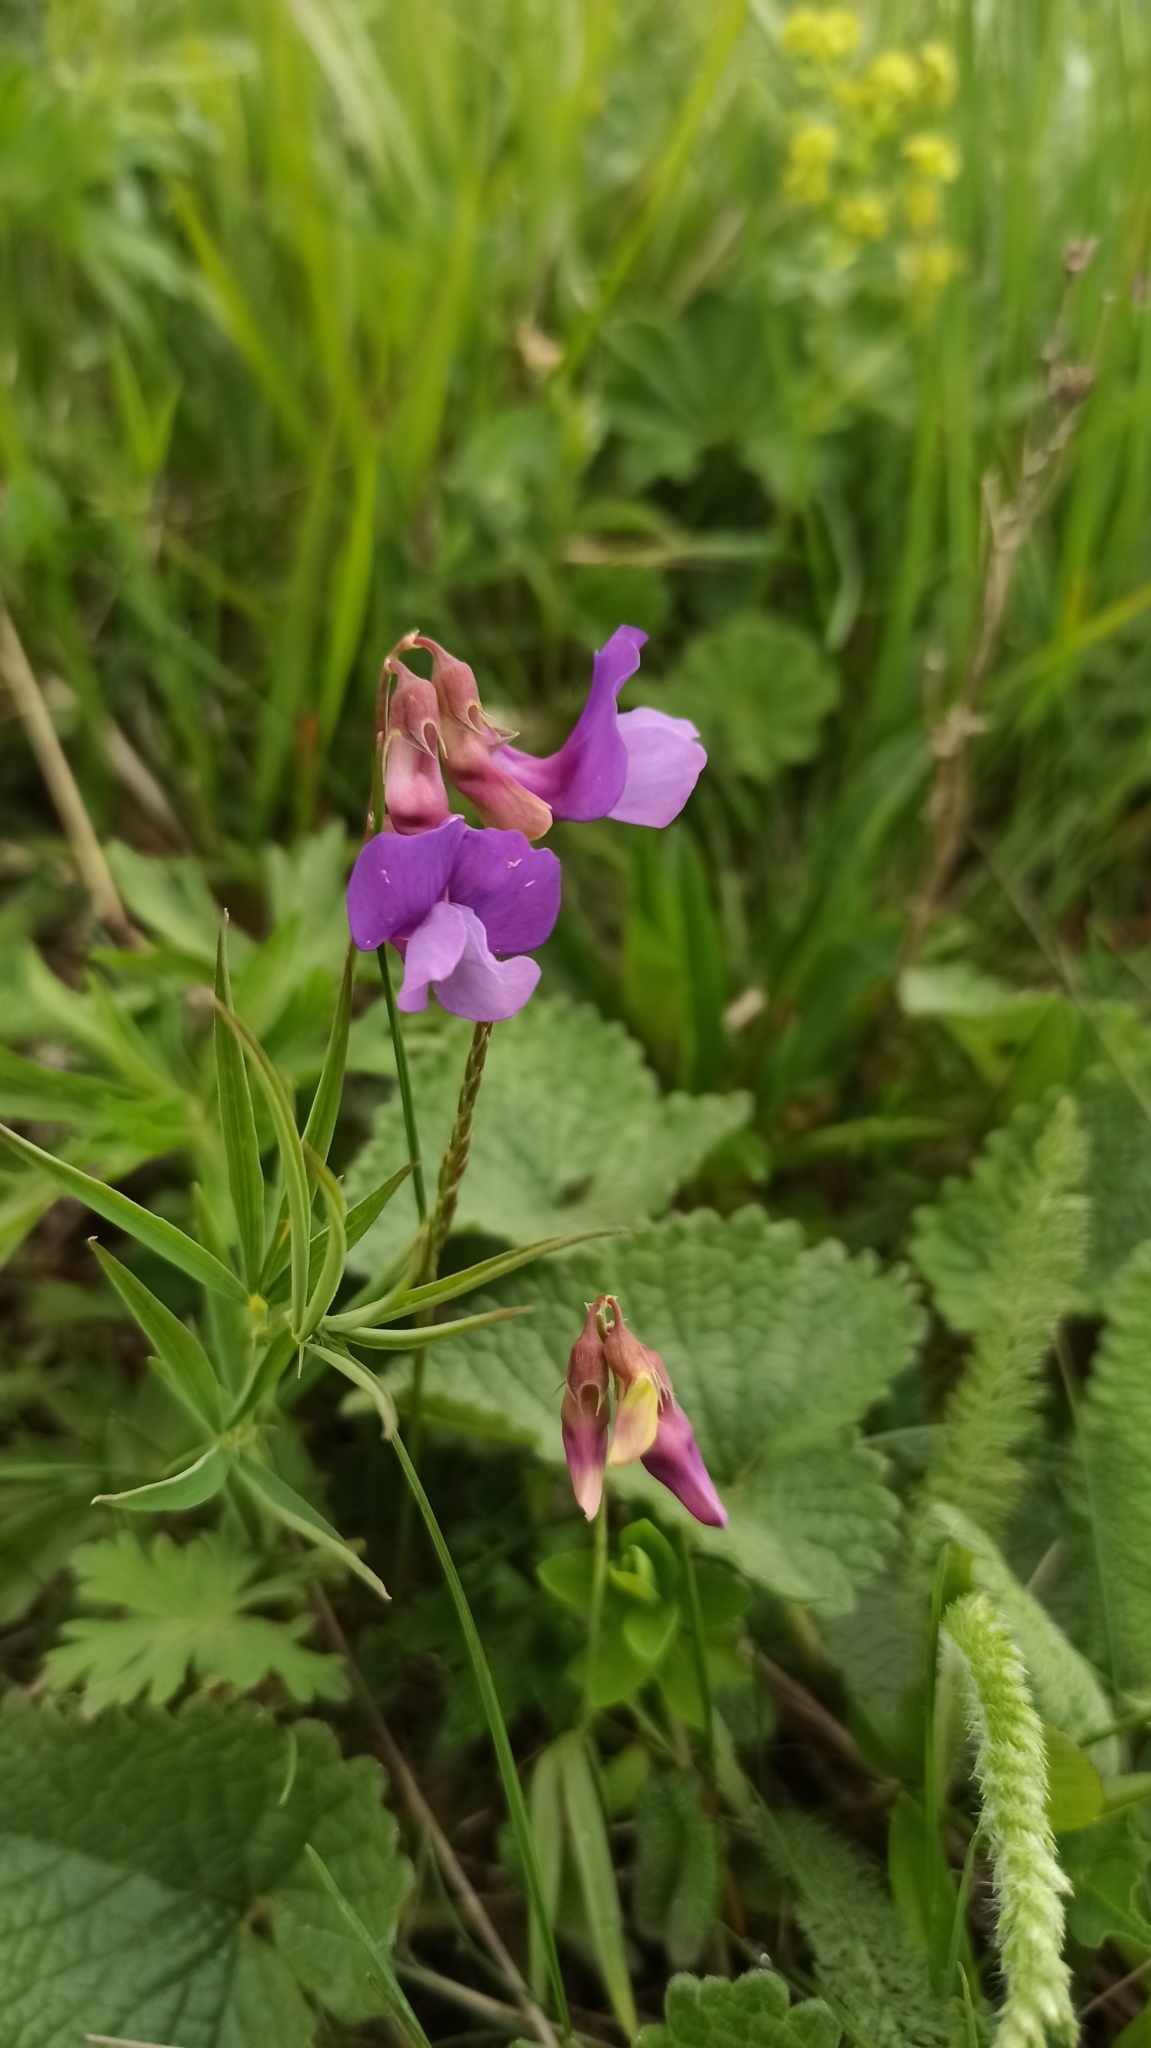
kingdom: Plantae
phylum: Tracheophyta
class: Magnoliopsida
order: Fabales
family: Fabaceae
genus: Lathyrus
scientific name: Lathyrus cyaneus
